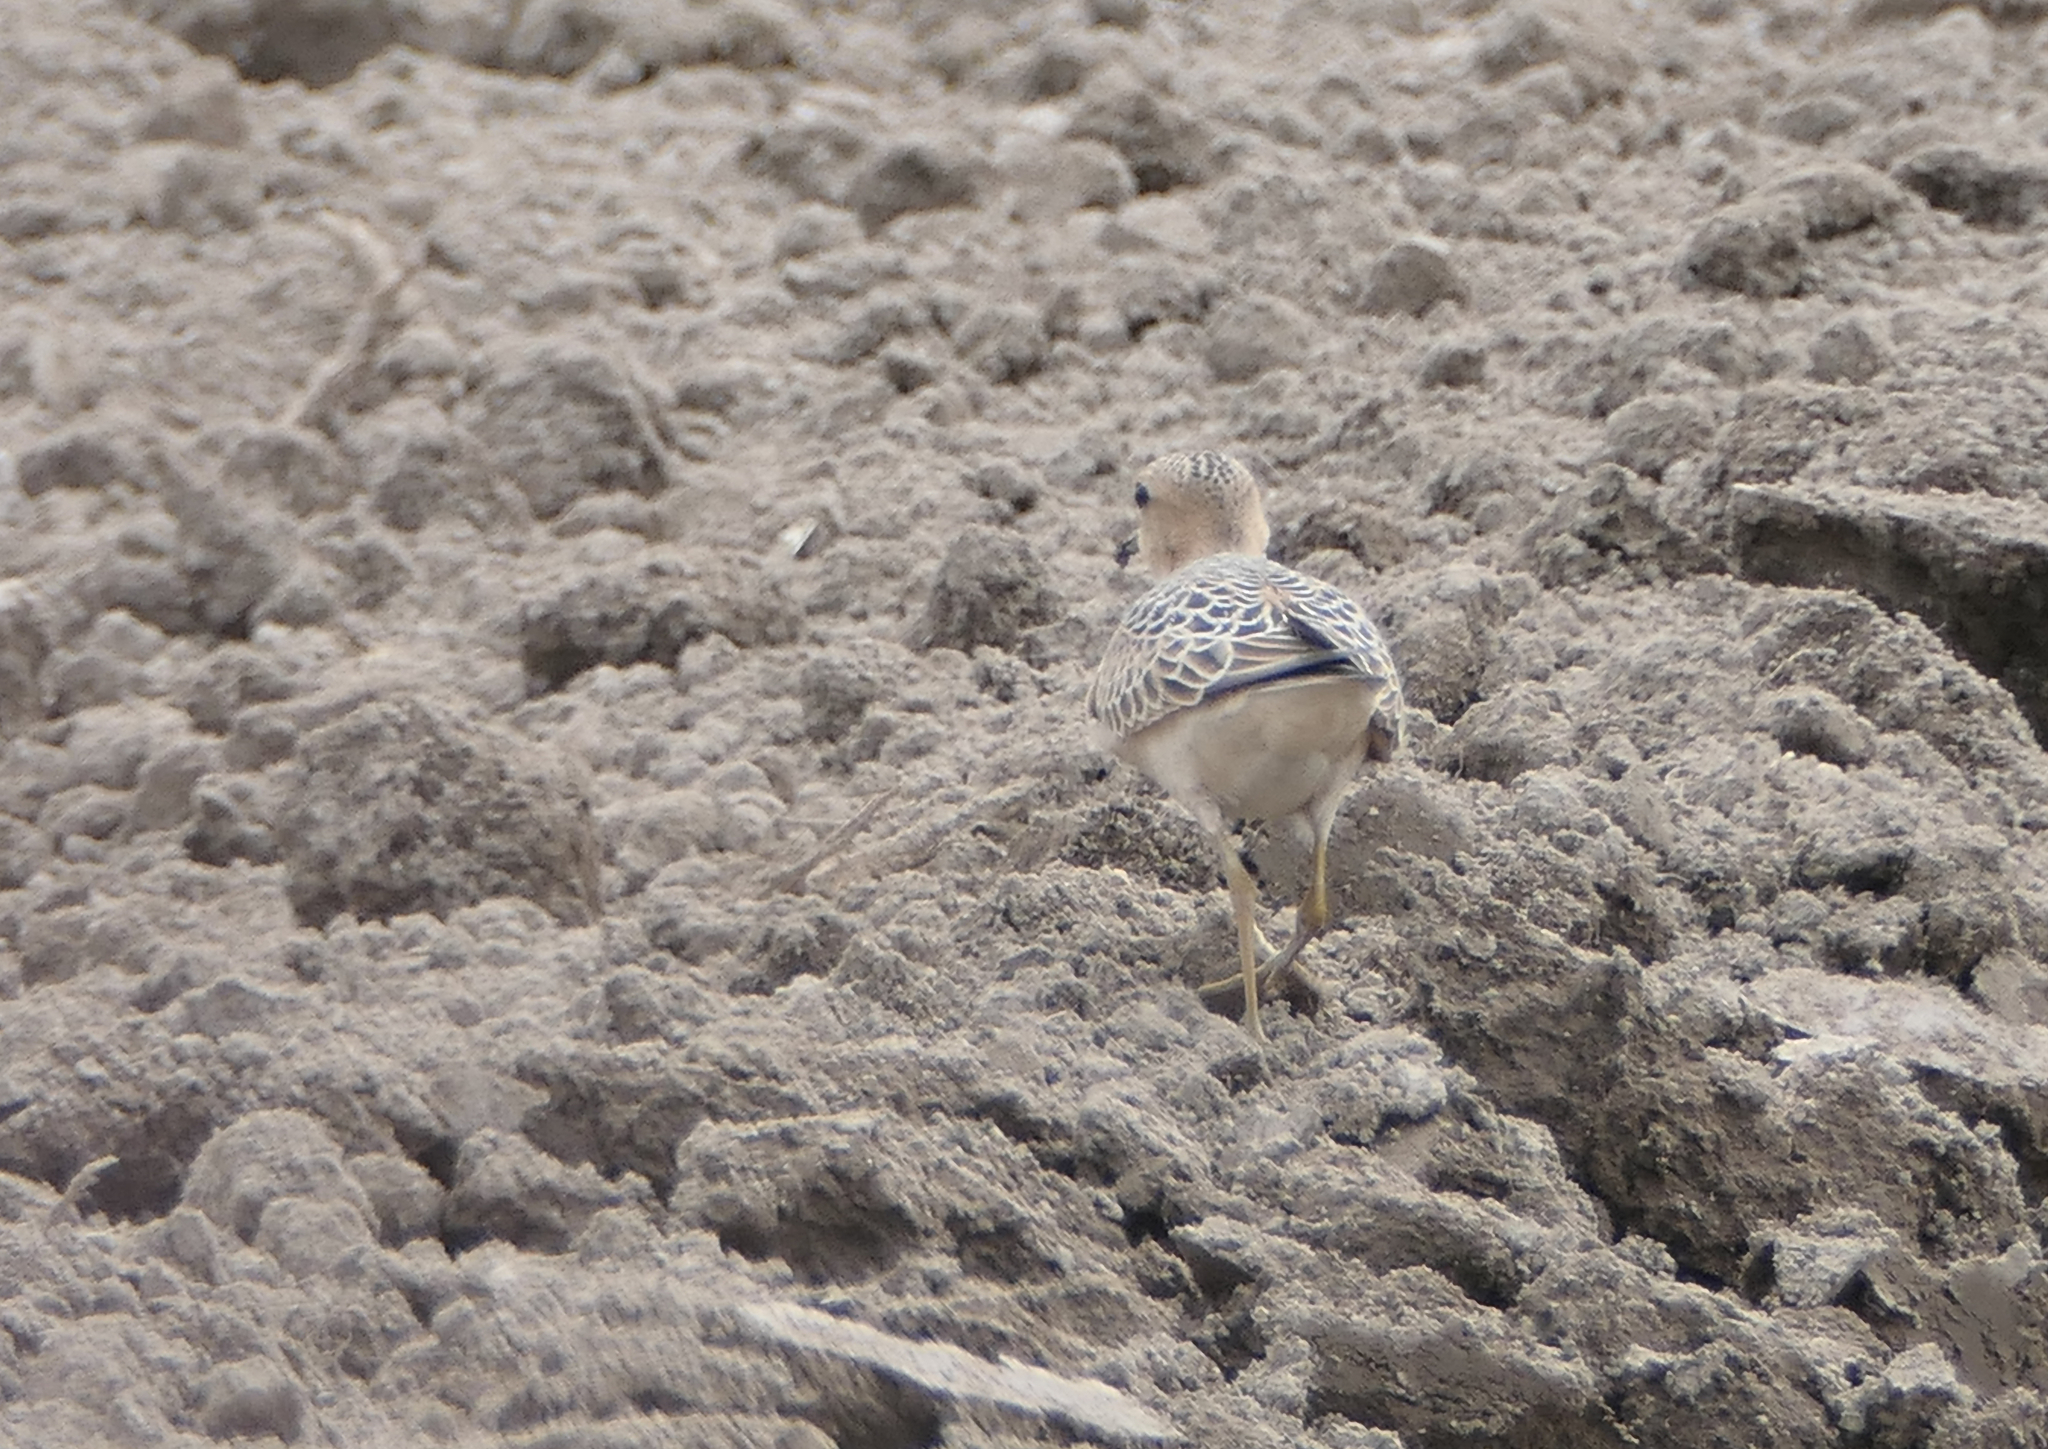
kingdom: Animalia
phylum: Chordata
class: Aves
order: Charadriiformes
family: Scolopacidae
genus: Calidris
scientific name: Calidris subruficollis
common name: Buff-breasted sandpiper
